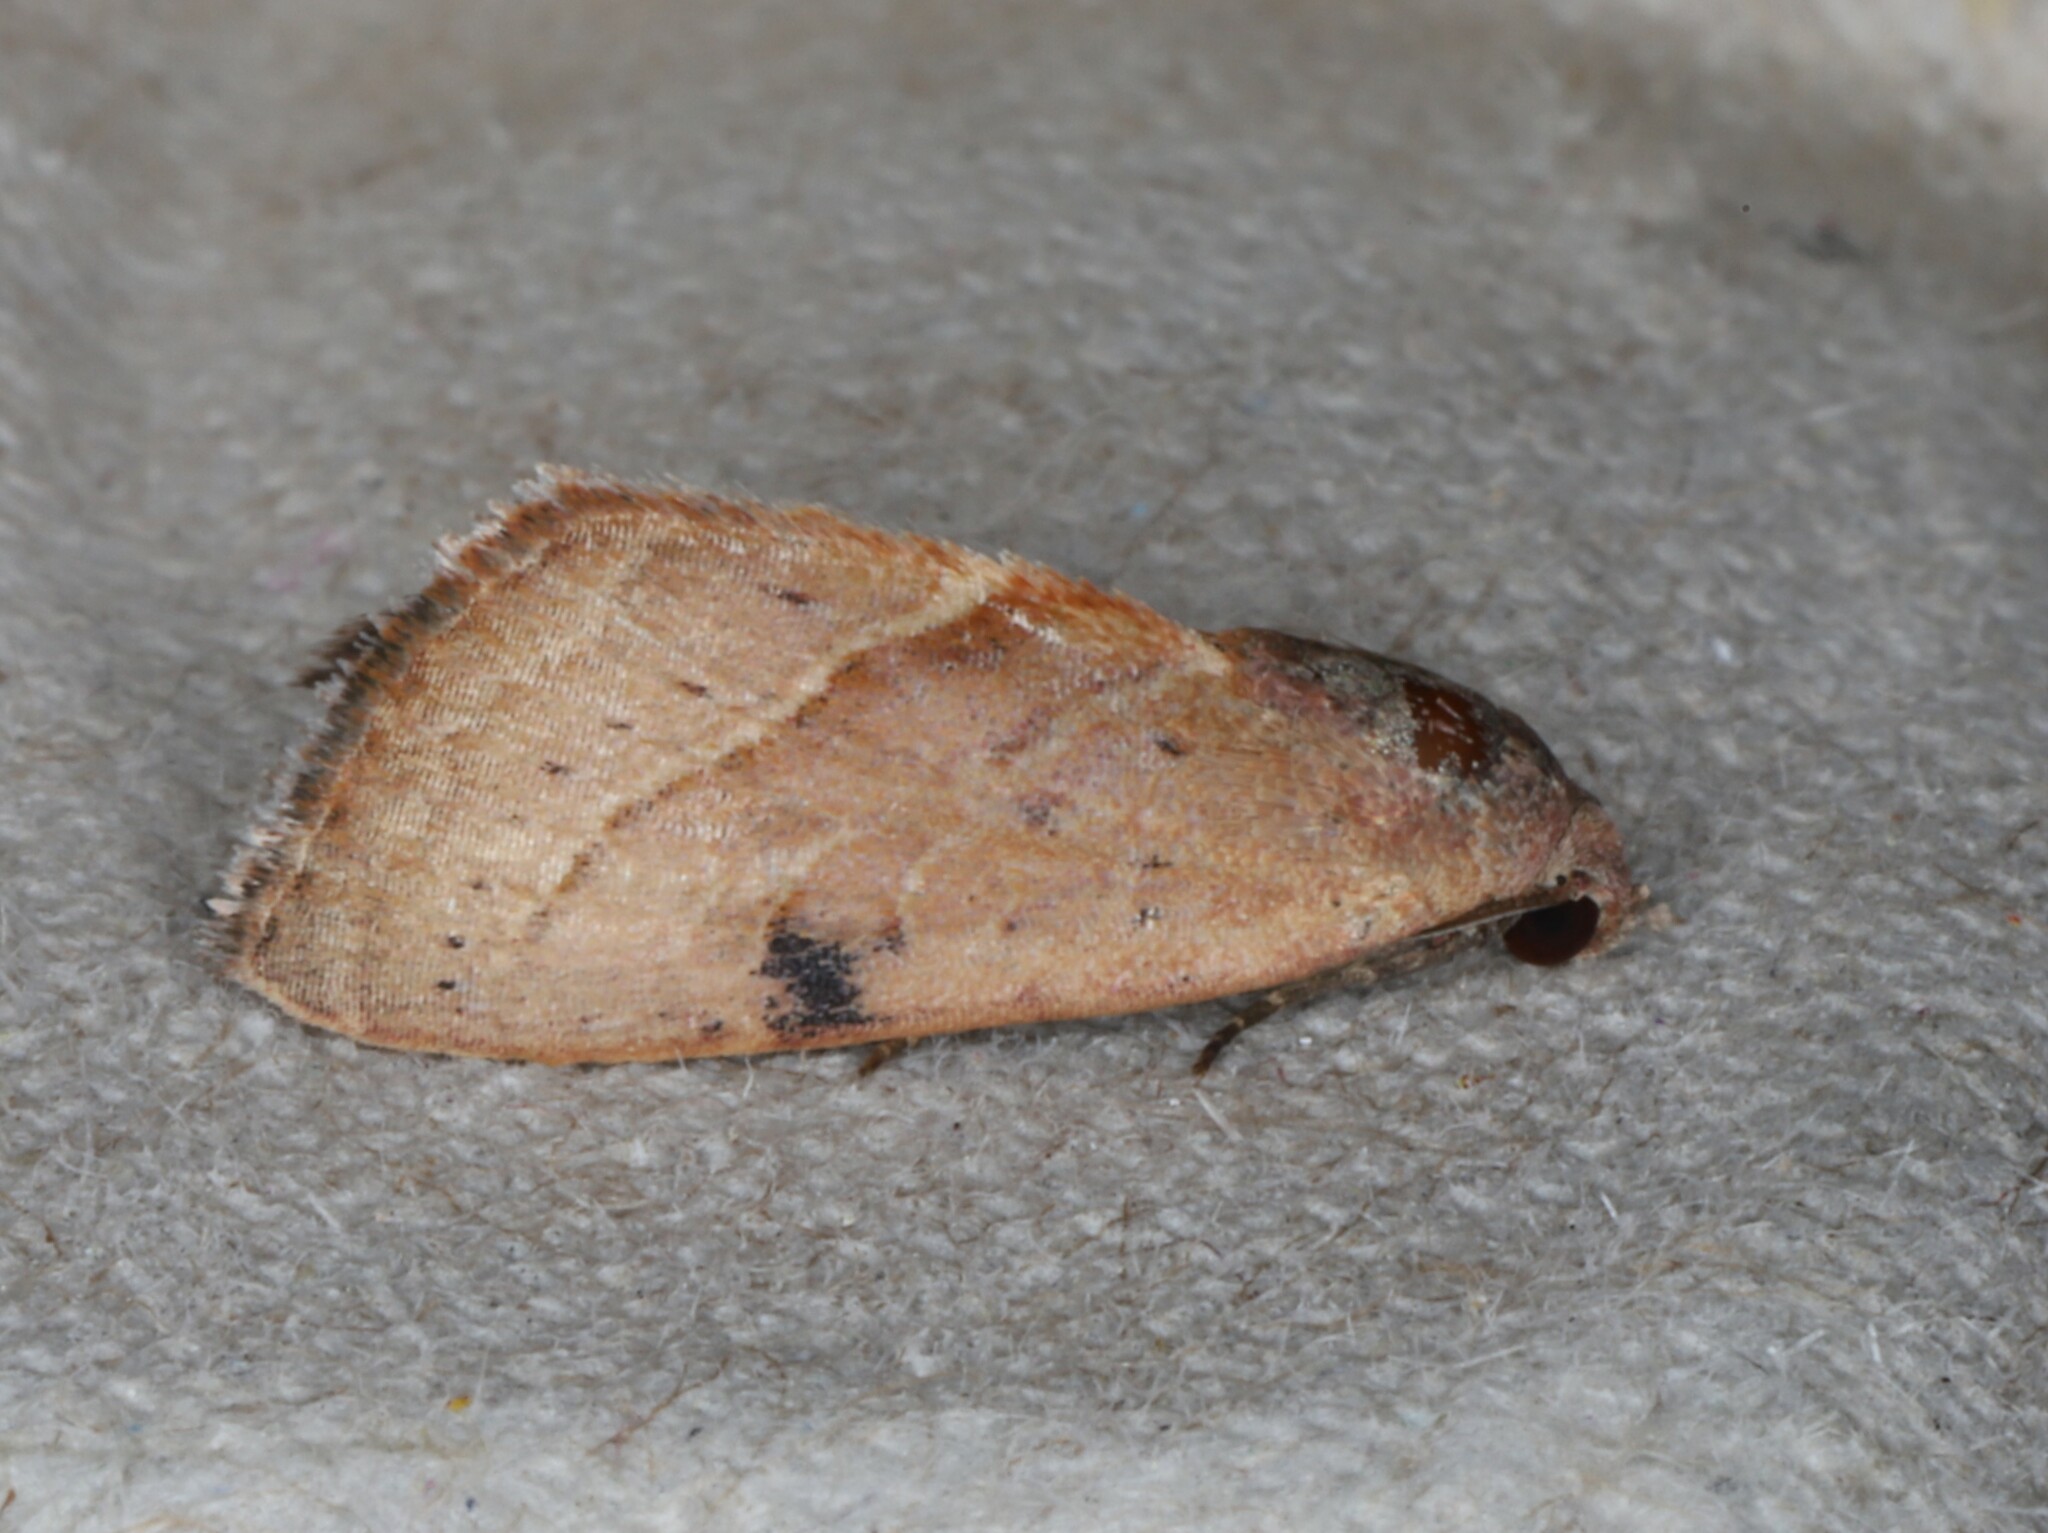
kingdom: Animalia
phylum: Arthropoda
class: Insecta
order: Lepidoptera
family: Noctuidae
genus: Galgula
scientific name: Galgula partita
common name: Wedgeling
